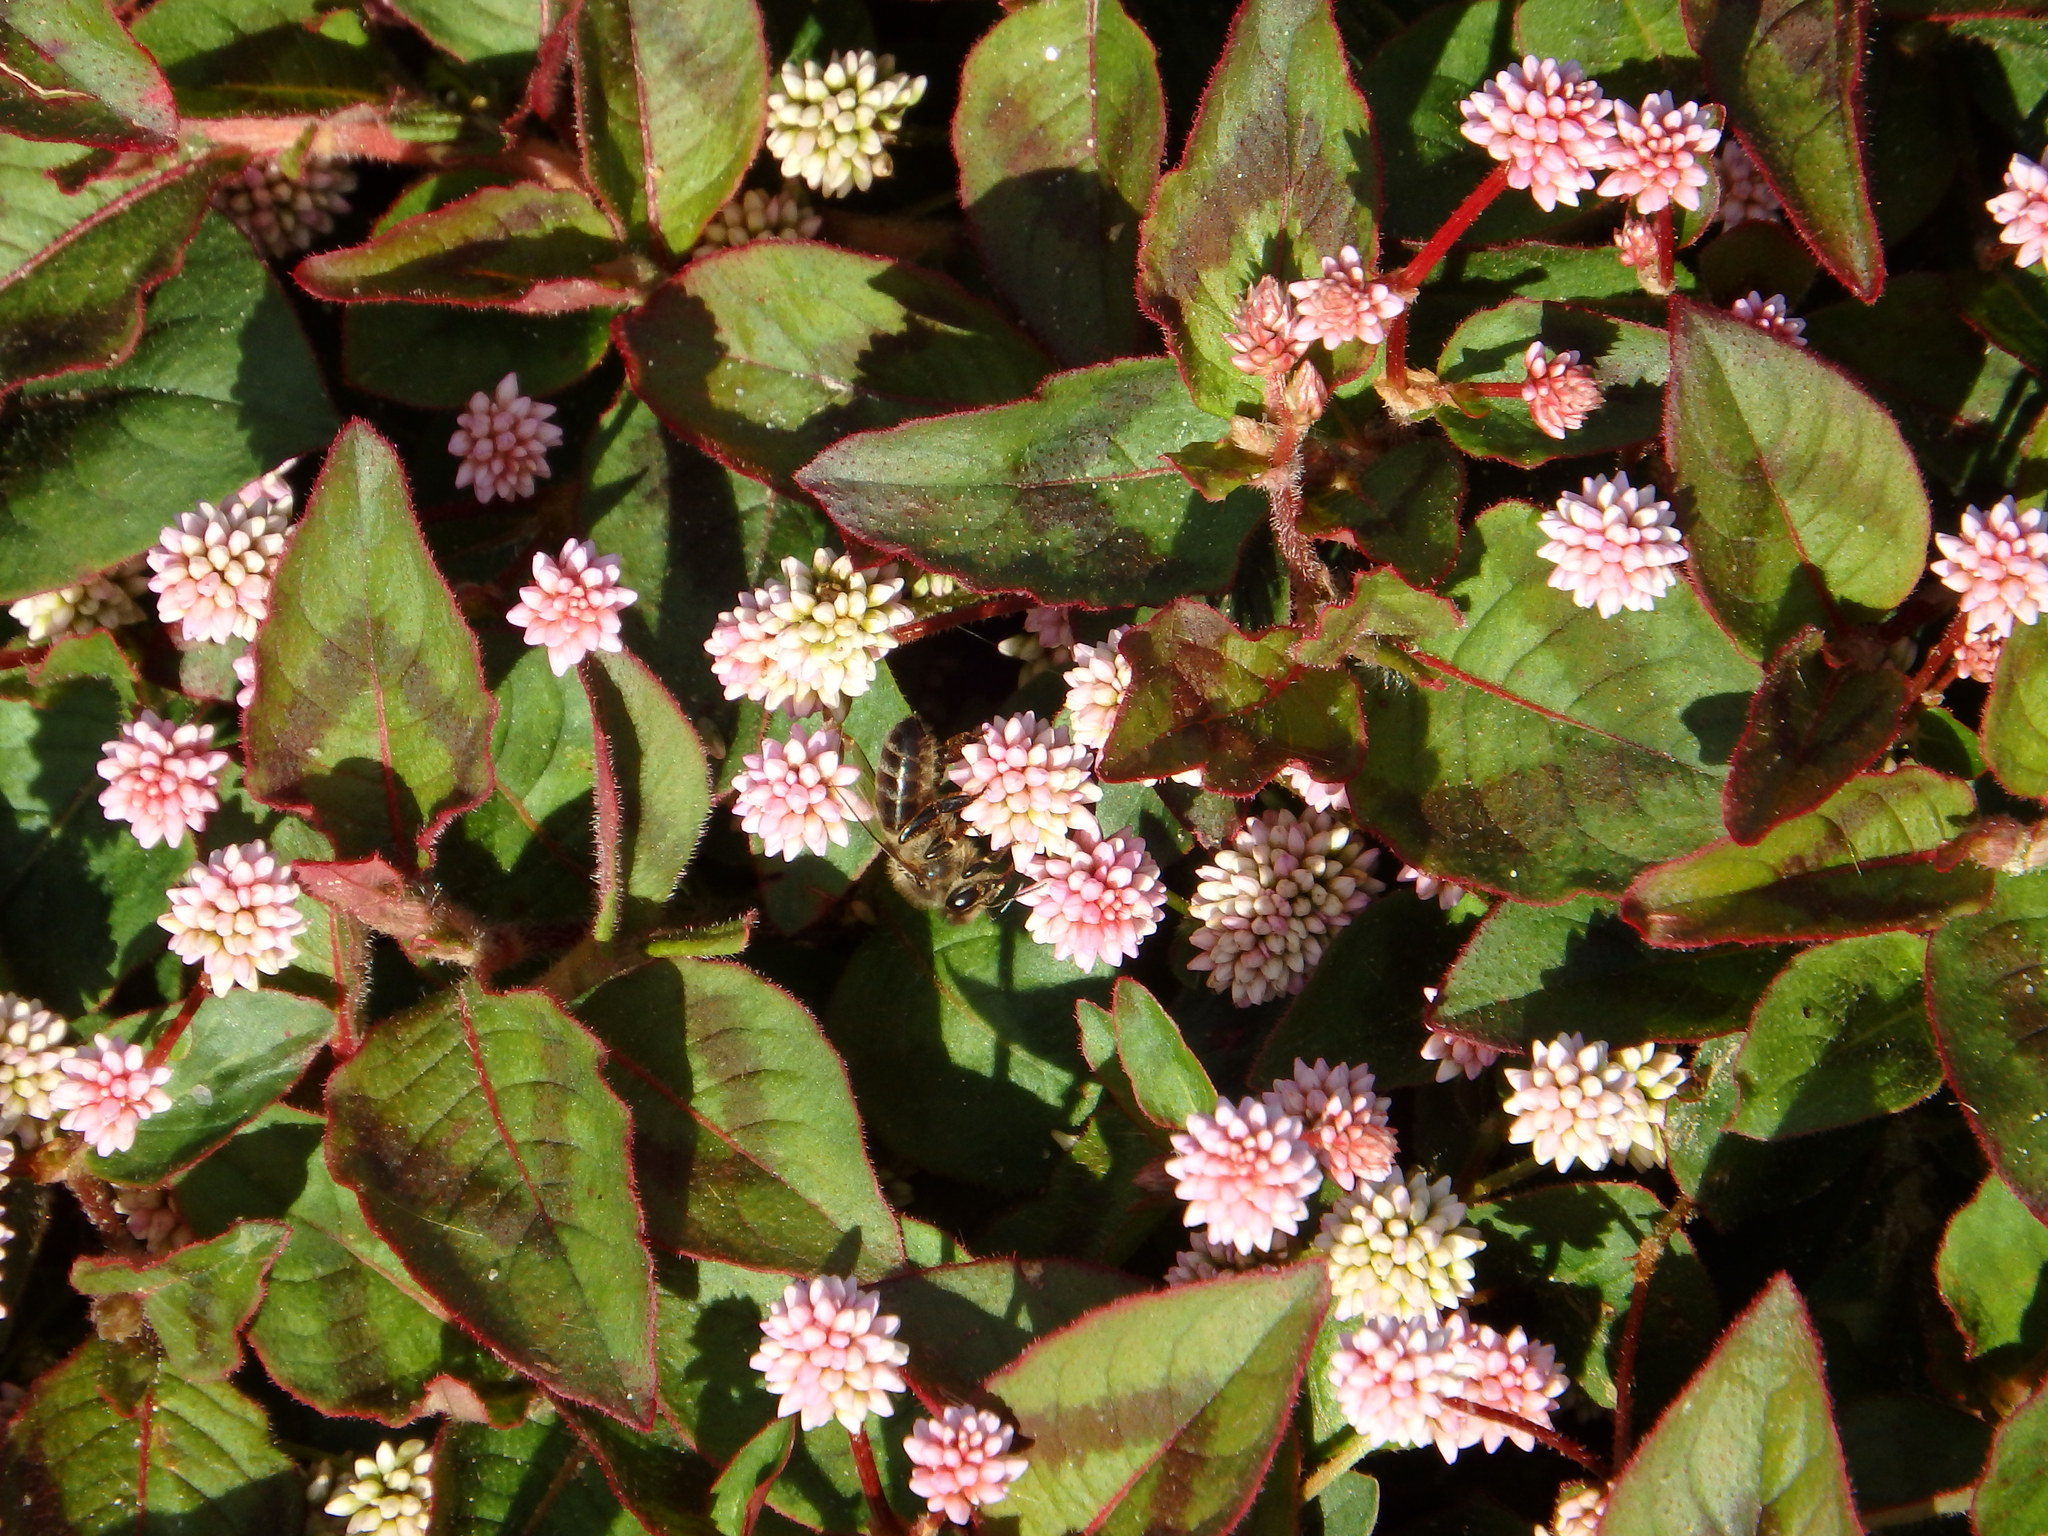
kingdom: Animalia
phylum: Arthropoda
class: Insecta
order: Hymenoptera
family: Apidae
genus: Apis
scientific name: Apis mellifera
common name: Honey bee
